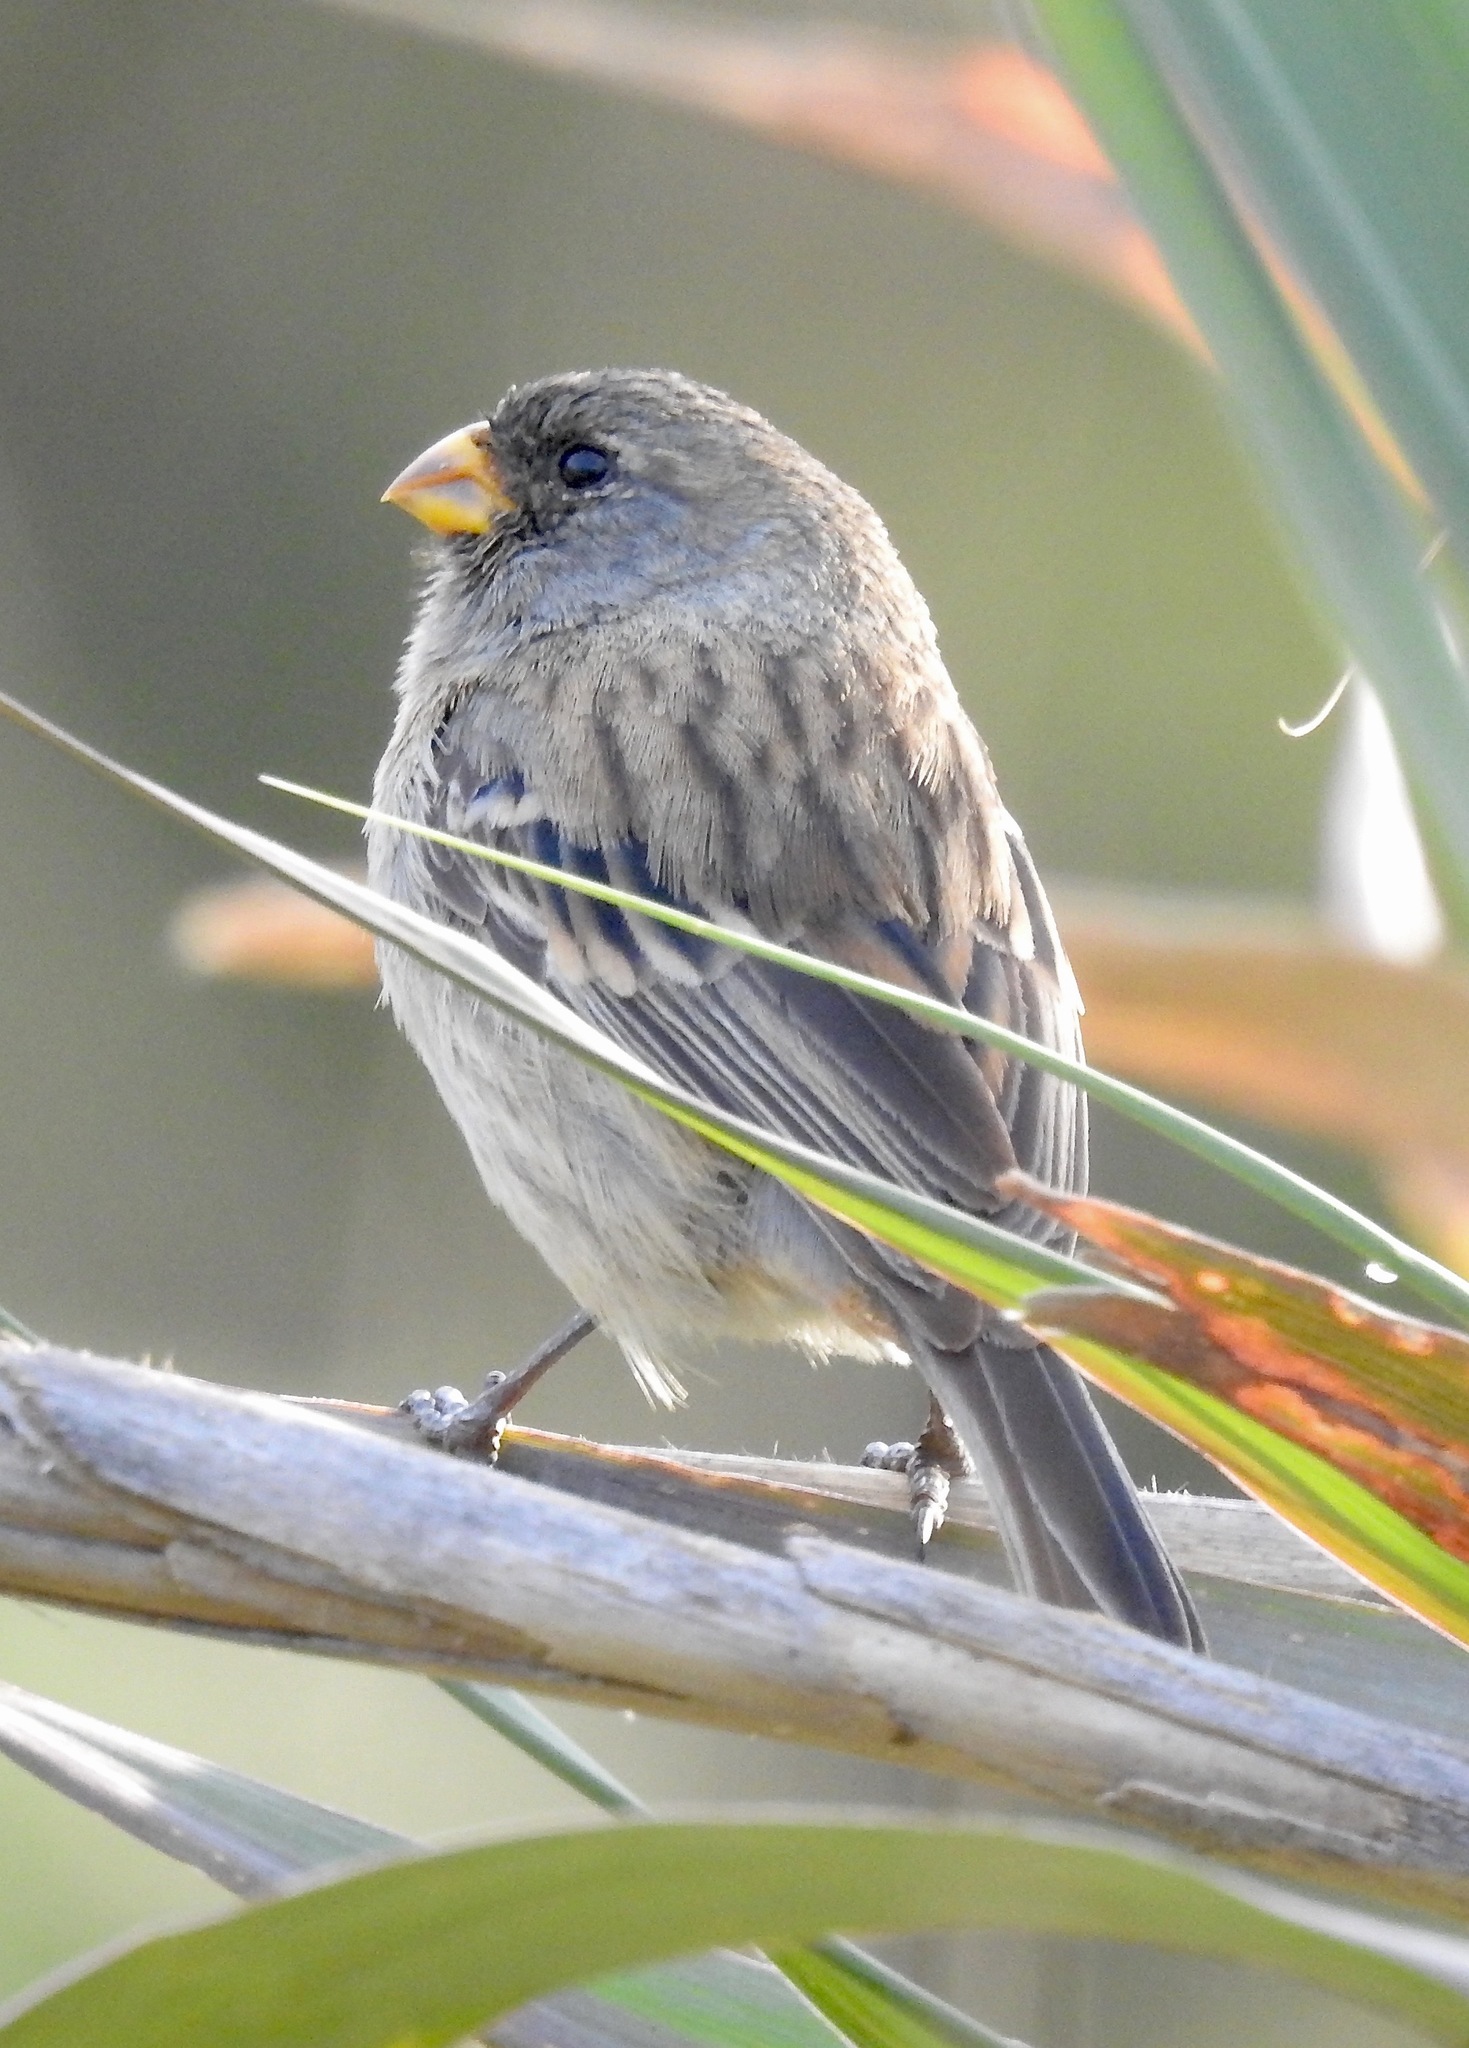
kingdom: Animalia
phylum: Chordata
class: Aves
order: Passeriformes
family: Thraupidae
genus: Catamenia
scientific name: Catamenia inornata
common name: Plain-colored seedeater
